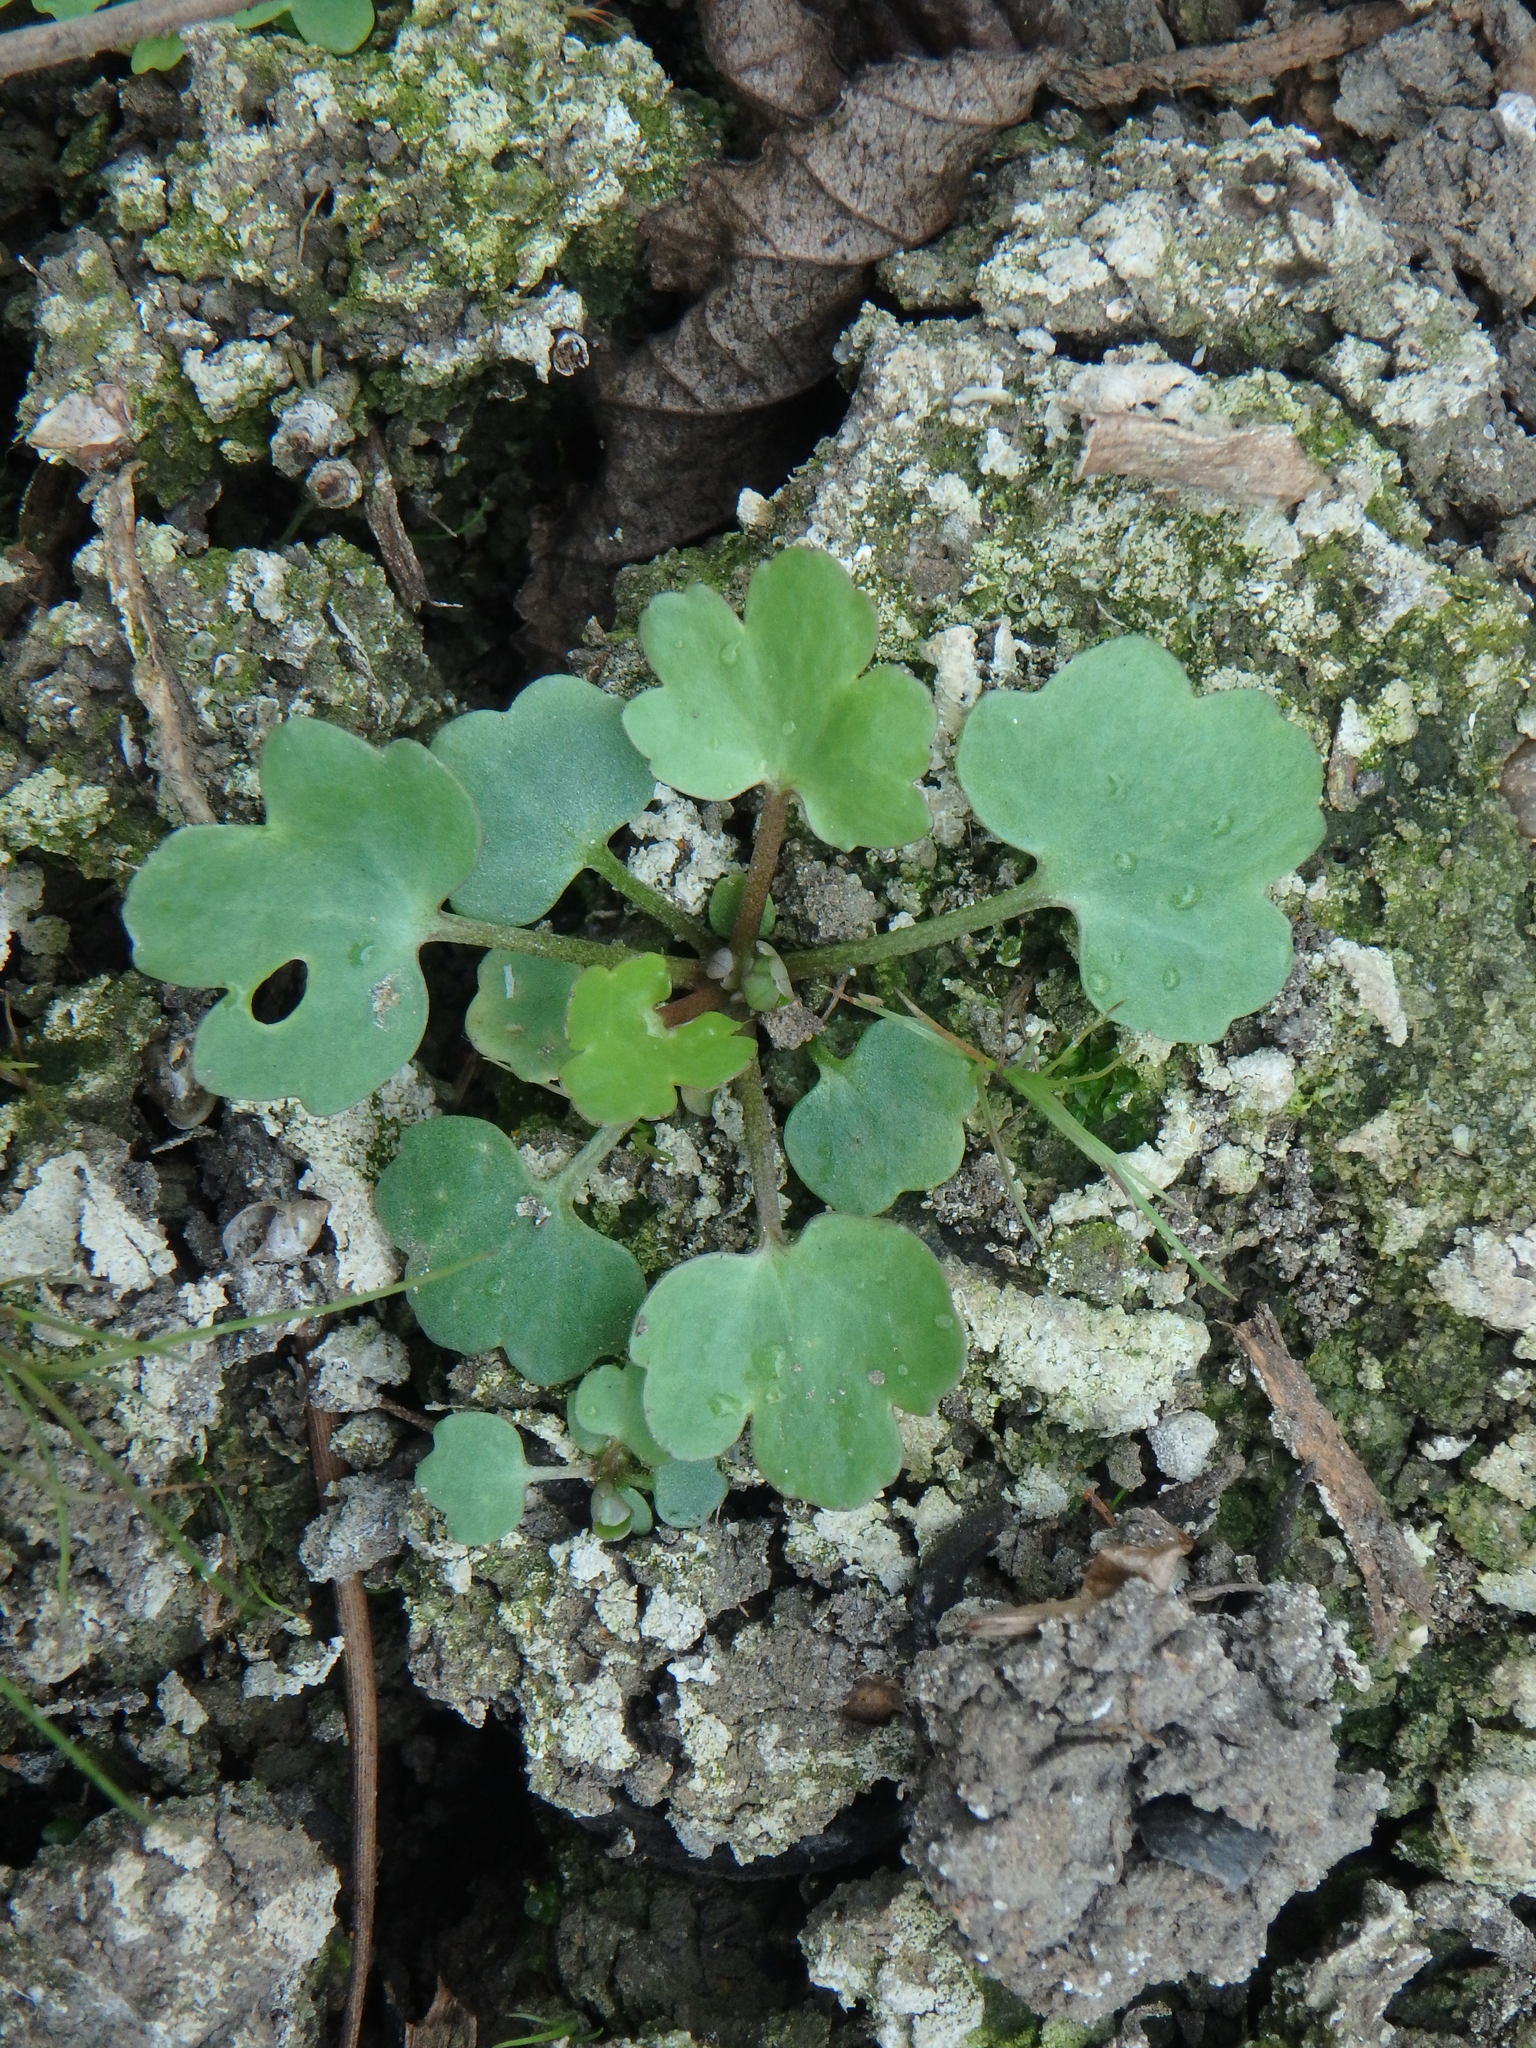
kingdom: Plantae
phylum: Tracheophyta
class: Magnoliopsida
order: Ranunculales
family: Ranunculaceae
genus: Ranunculus
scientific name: Ranunculus sceleratus
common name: Celery-leaved buttercup
